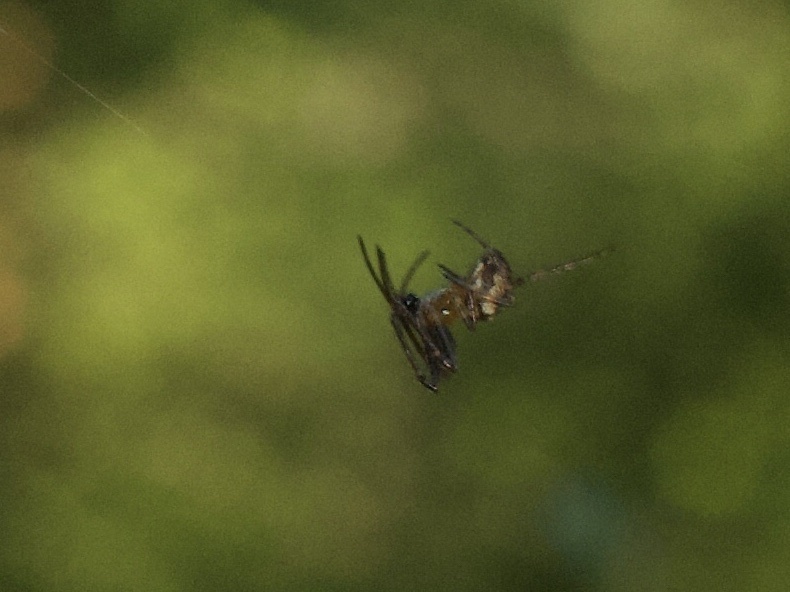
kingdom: Animalia
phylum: Arthropoda
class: Arachnida
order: Araneae
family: Araneidae
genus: Zilla
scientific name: Zilla diodia
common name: Zilla diodia
